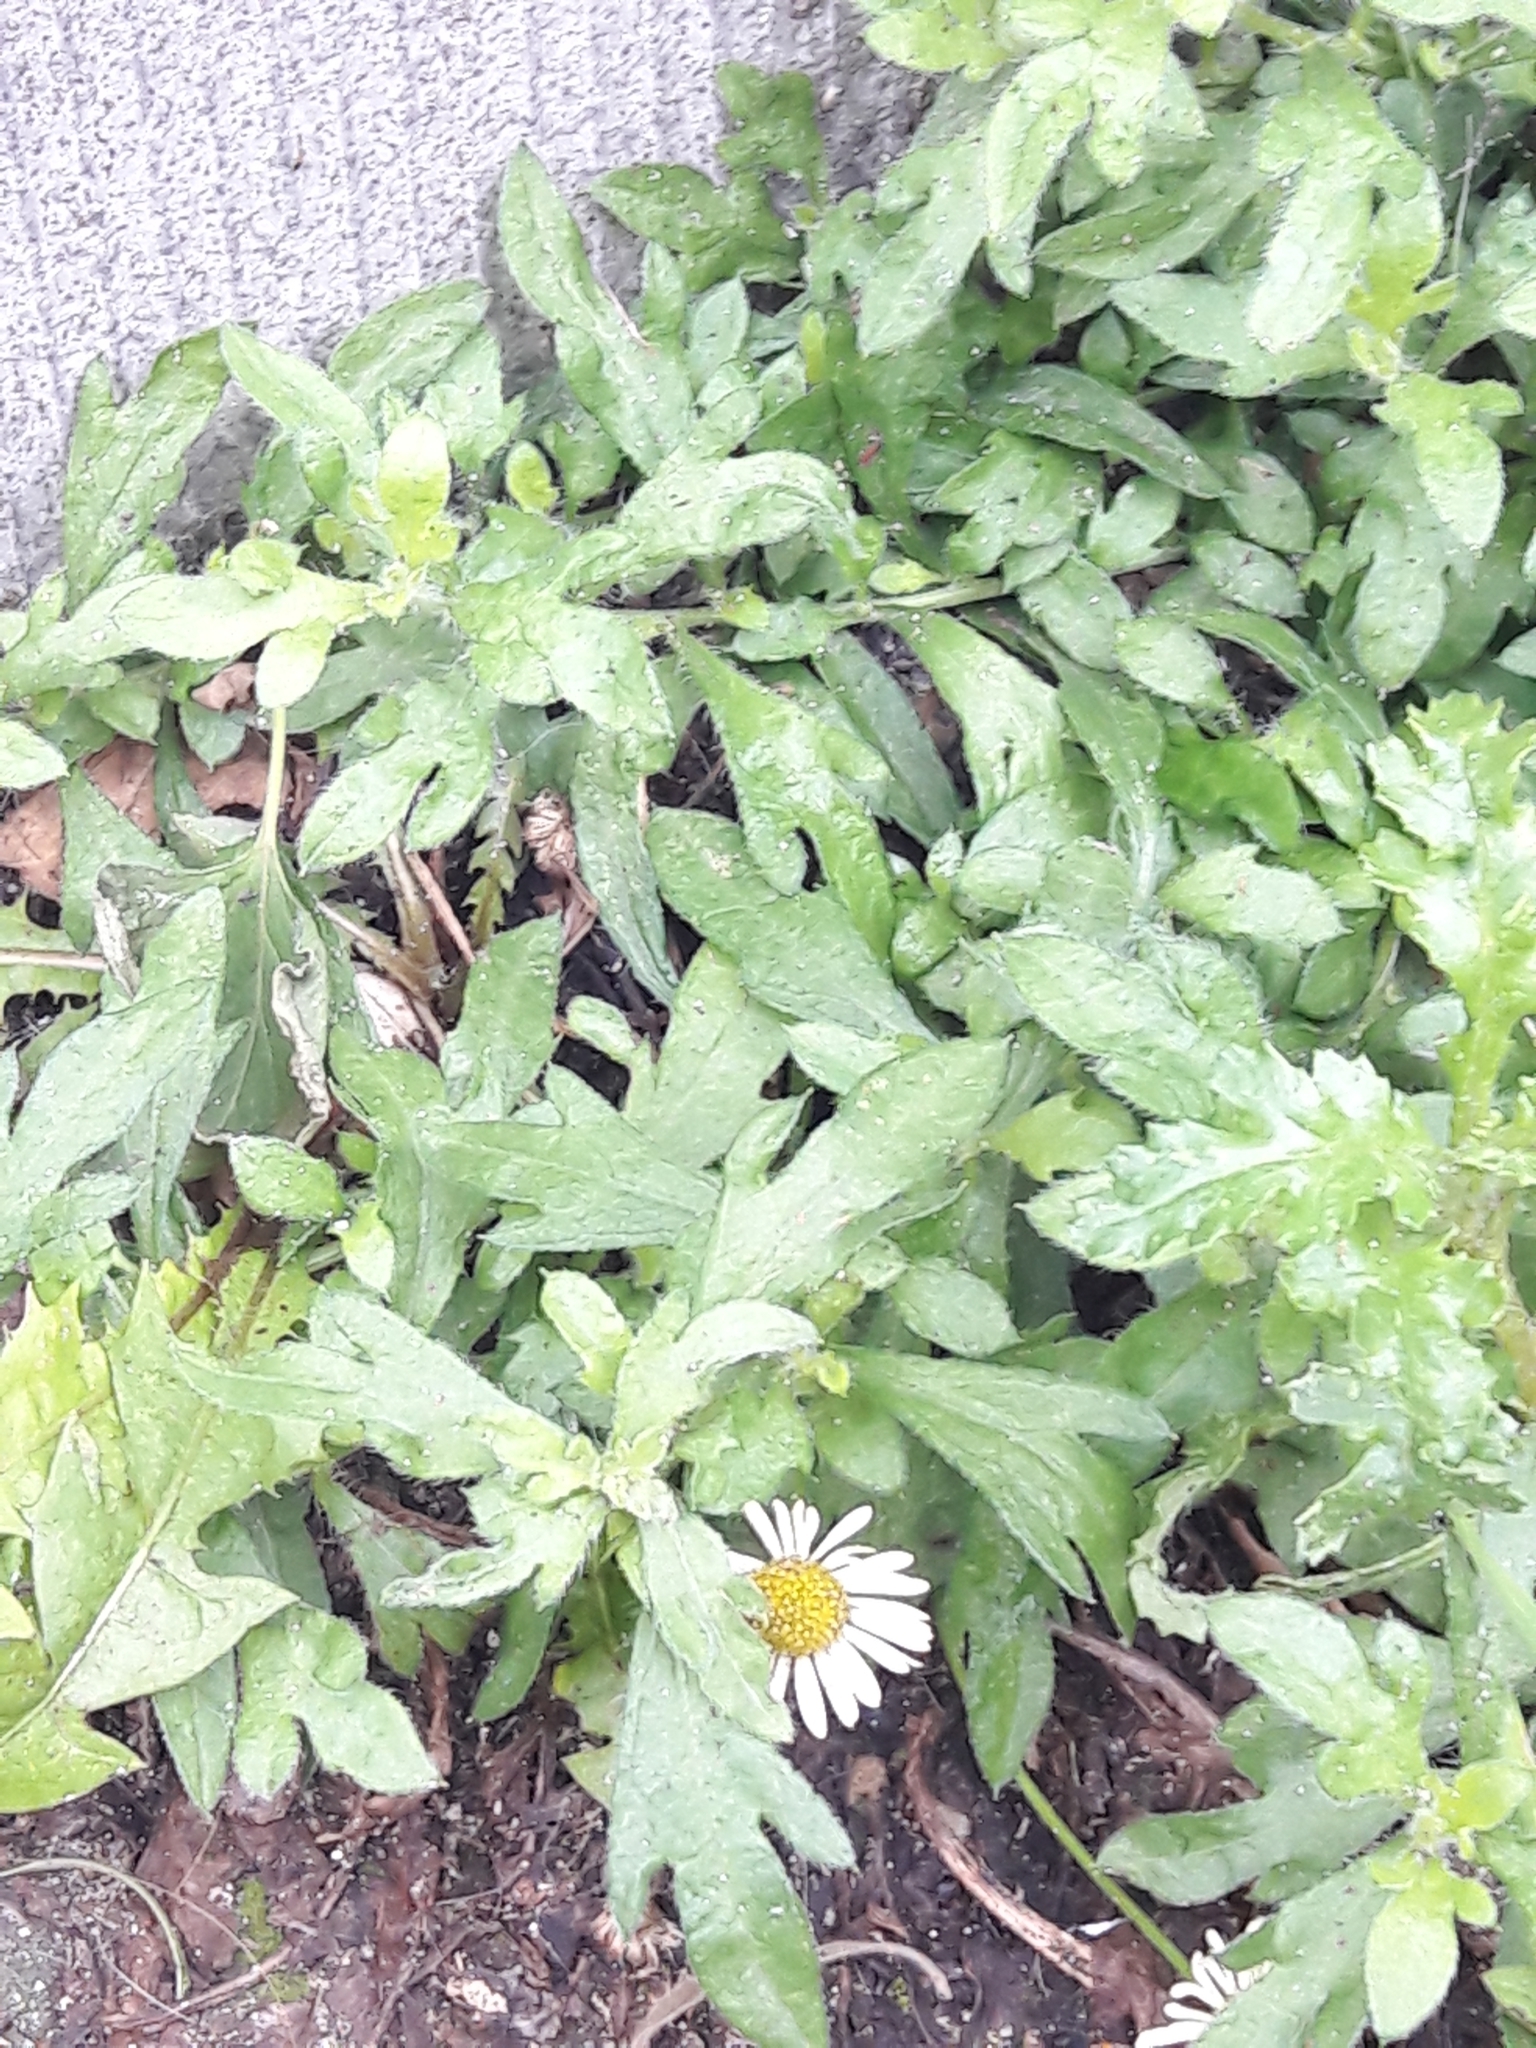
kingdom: Plantae
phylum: Tracheophyta
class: Magnoliopsida
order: Asterales
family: Asteraceae
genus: Erigeron
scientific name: Erigeron karvinskianus
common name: Mexican fleabane
